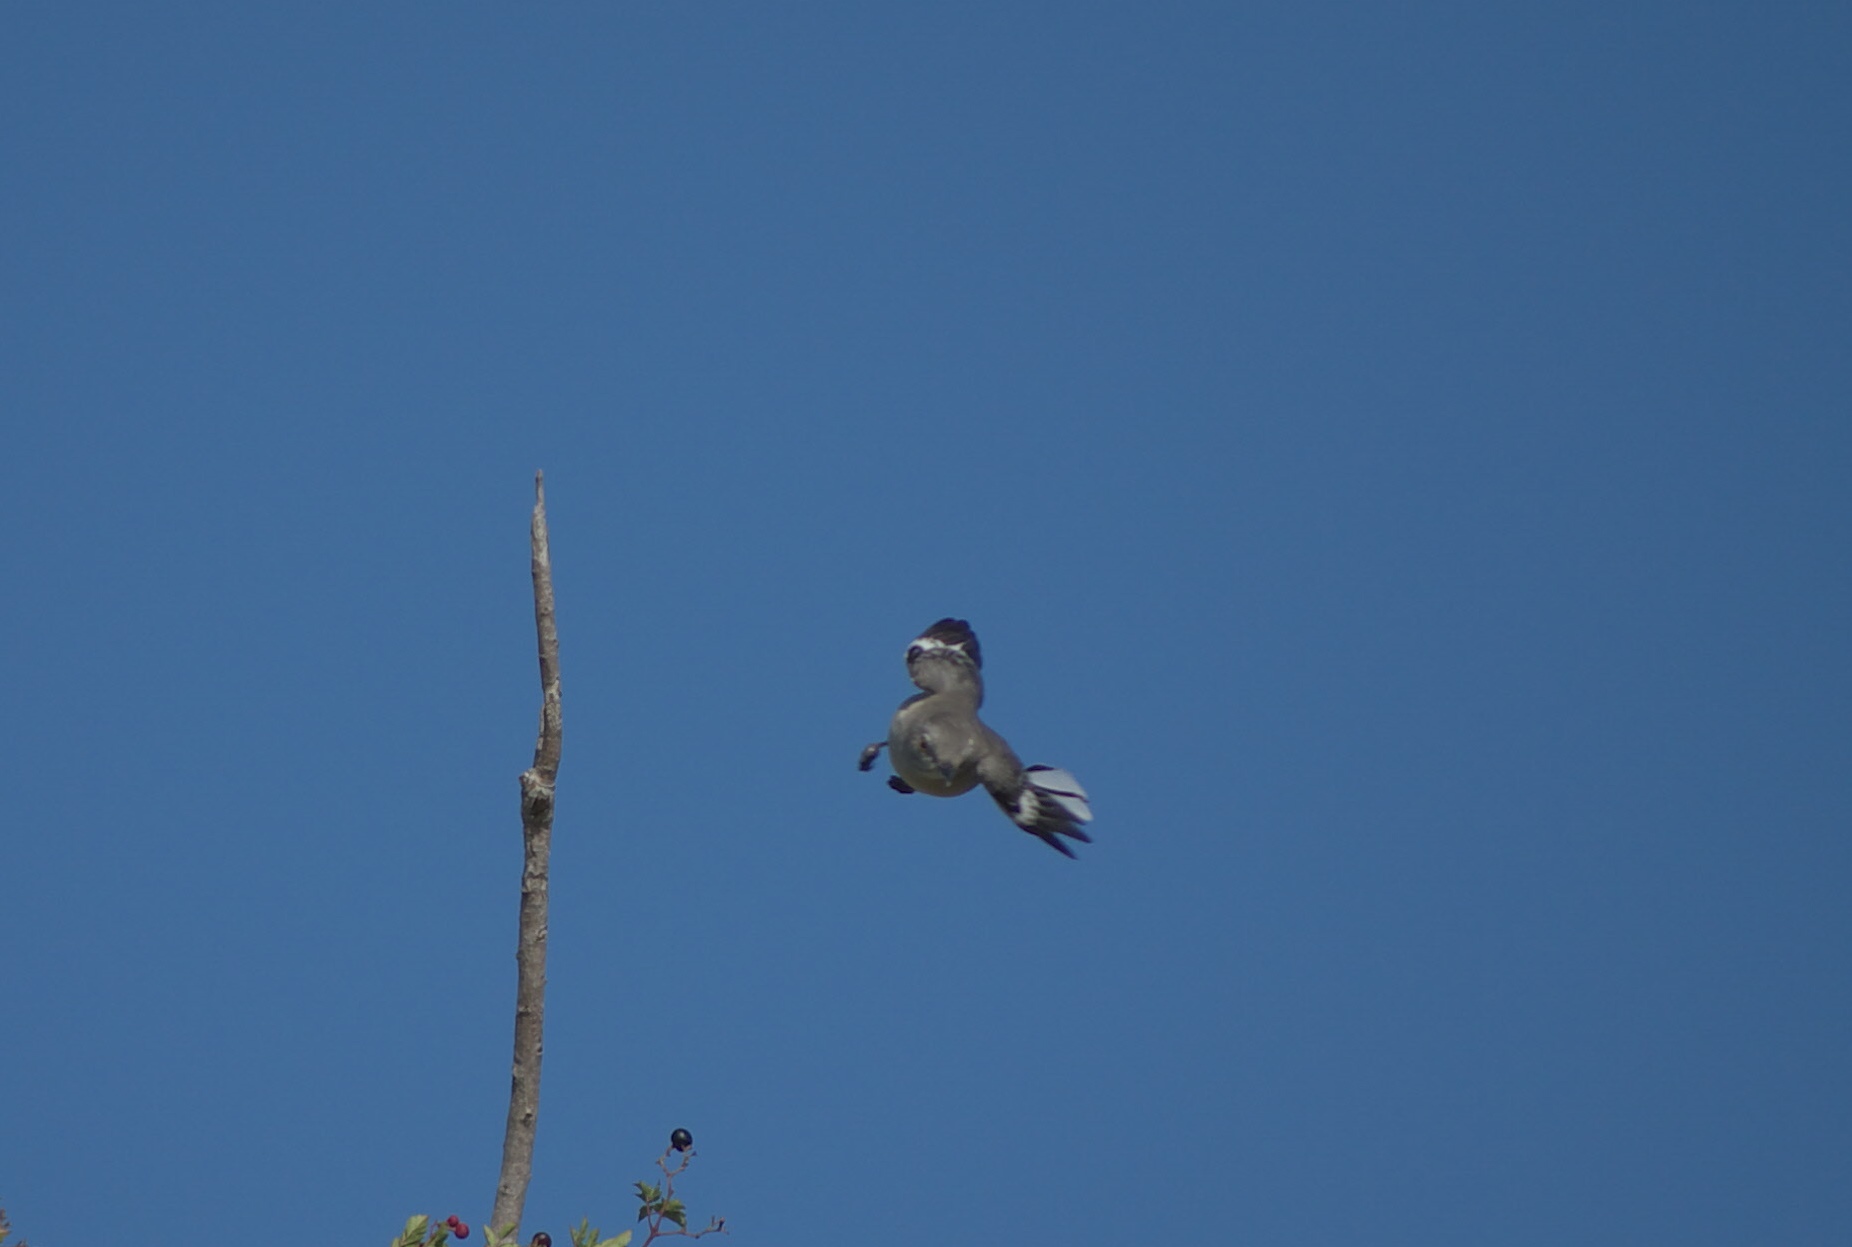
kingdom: Animalia
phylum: Chordata
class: Aves
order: Passeriformes
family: Mimidae
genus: Mimus
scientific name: Mimus polyglottos
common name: Northern mockingbird
